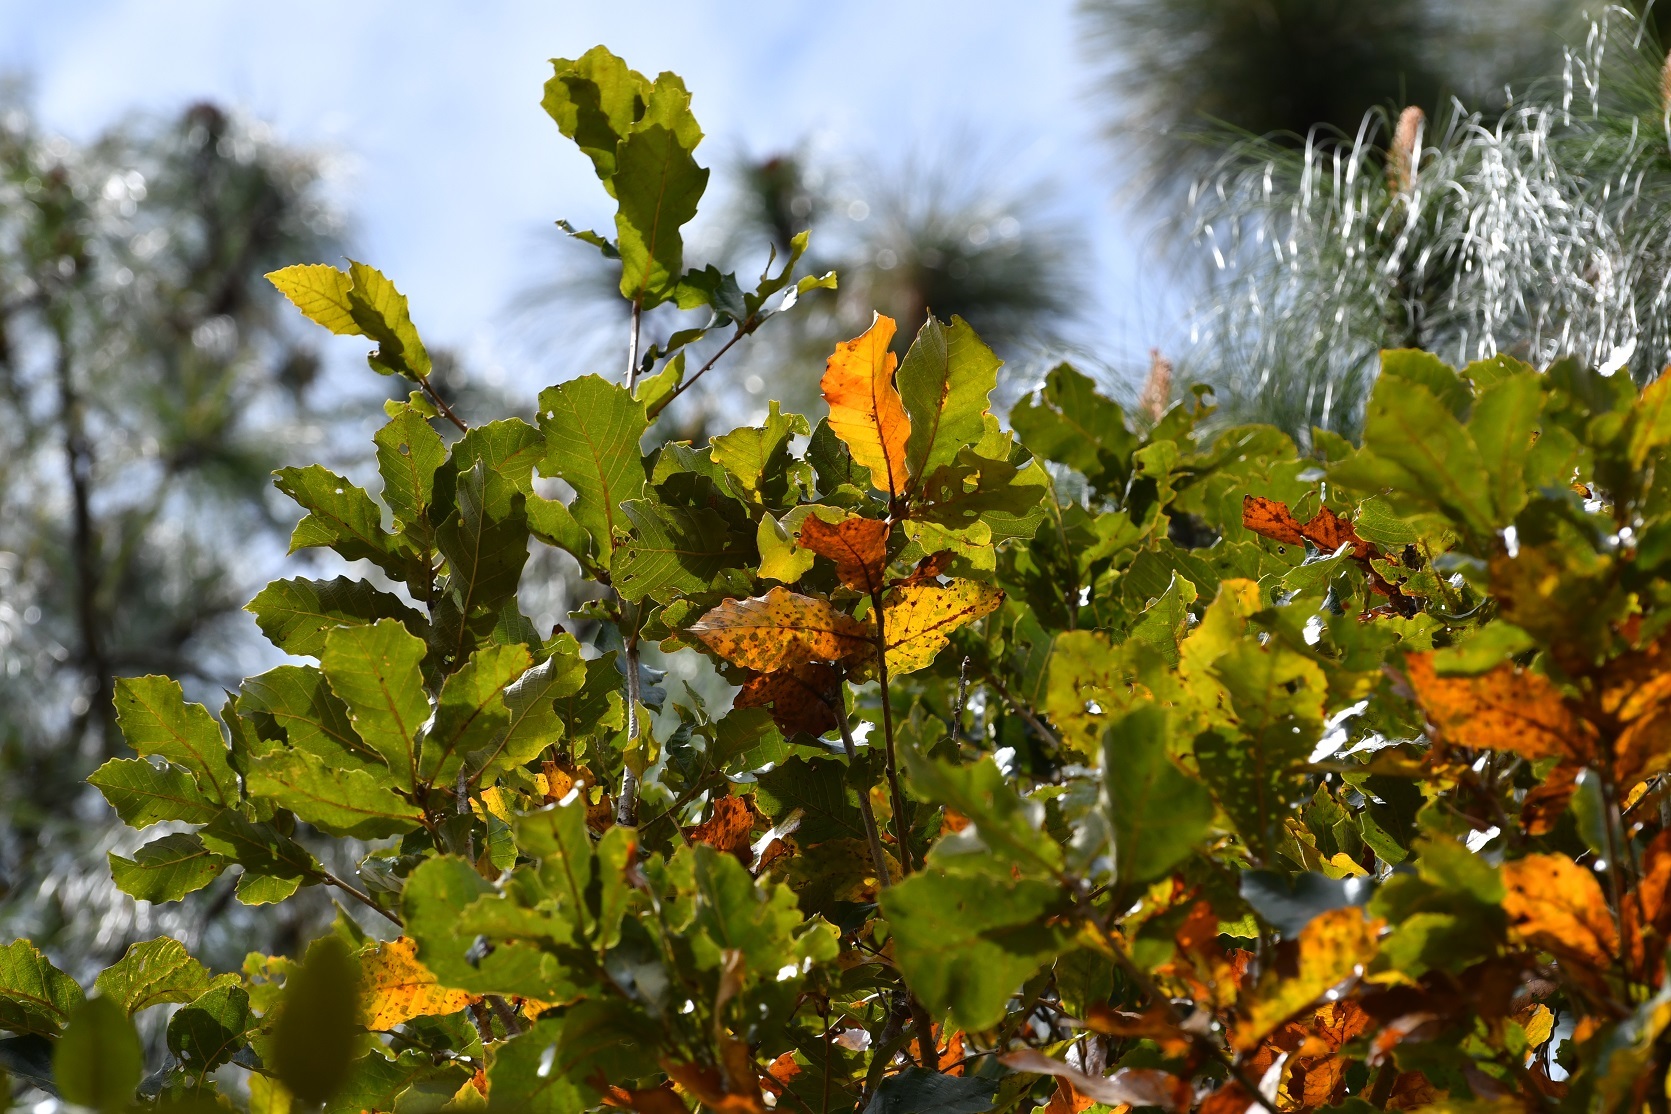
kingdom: Plantae
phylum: Tracheophyta
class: Magnoliopsida
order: Fagales
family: Fagaceae
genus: Quercus
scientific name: Quercus segoviensis
